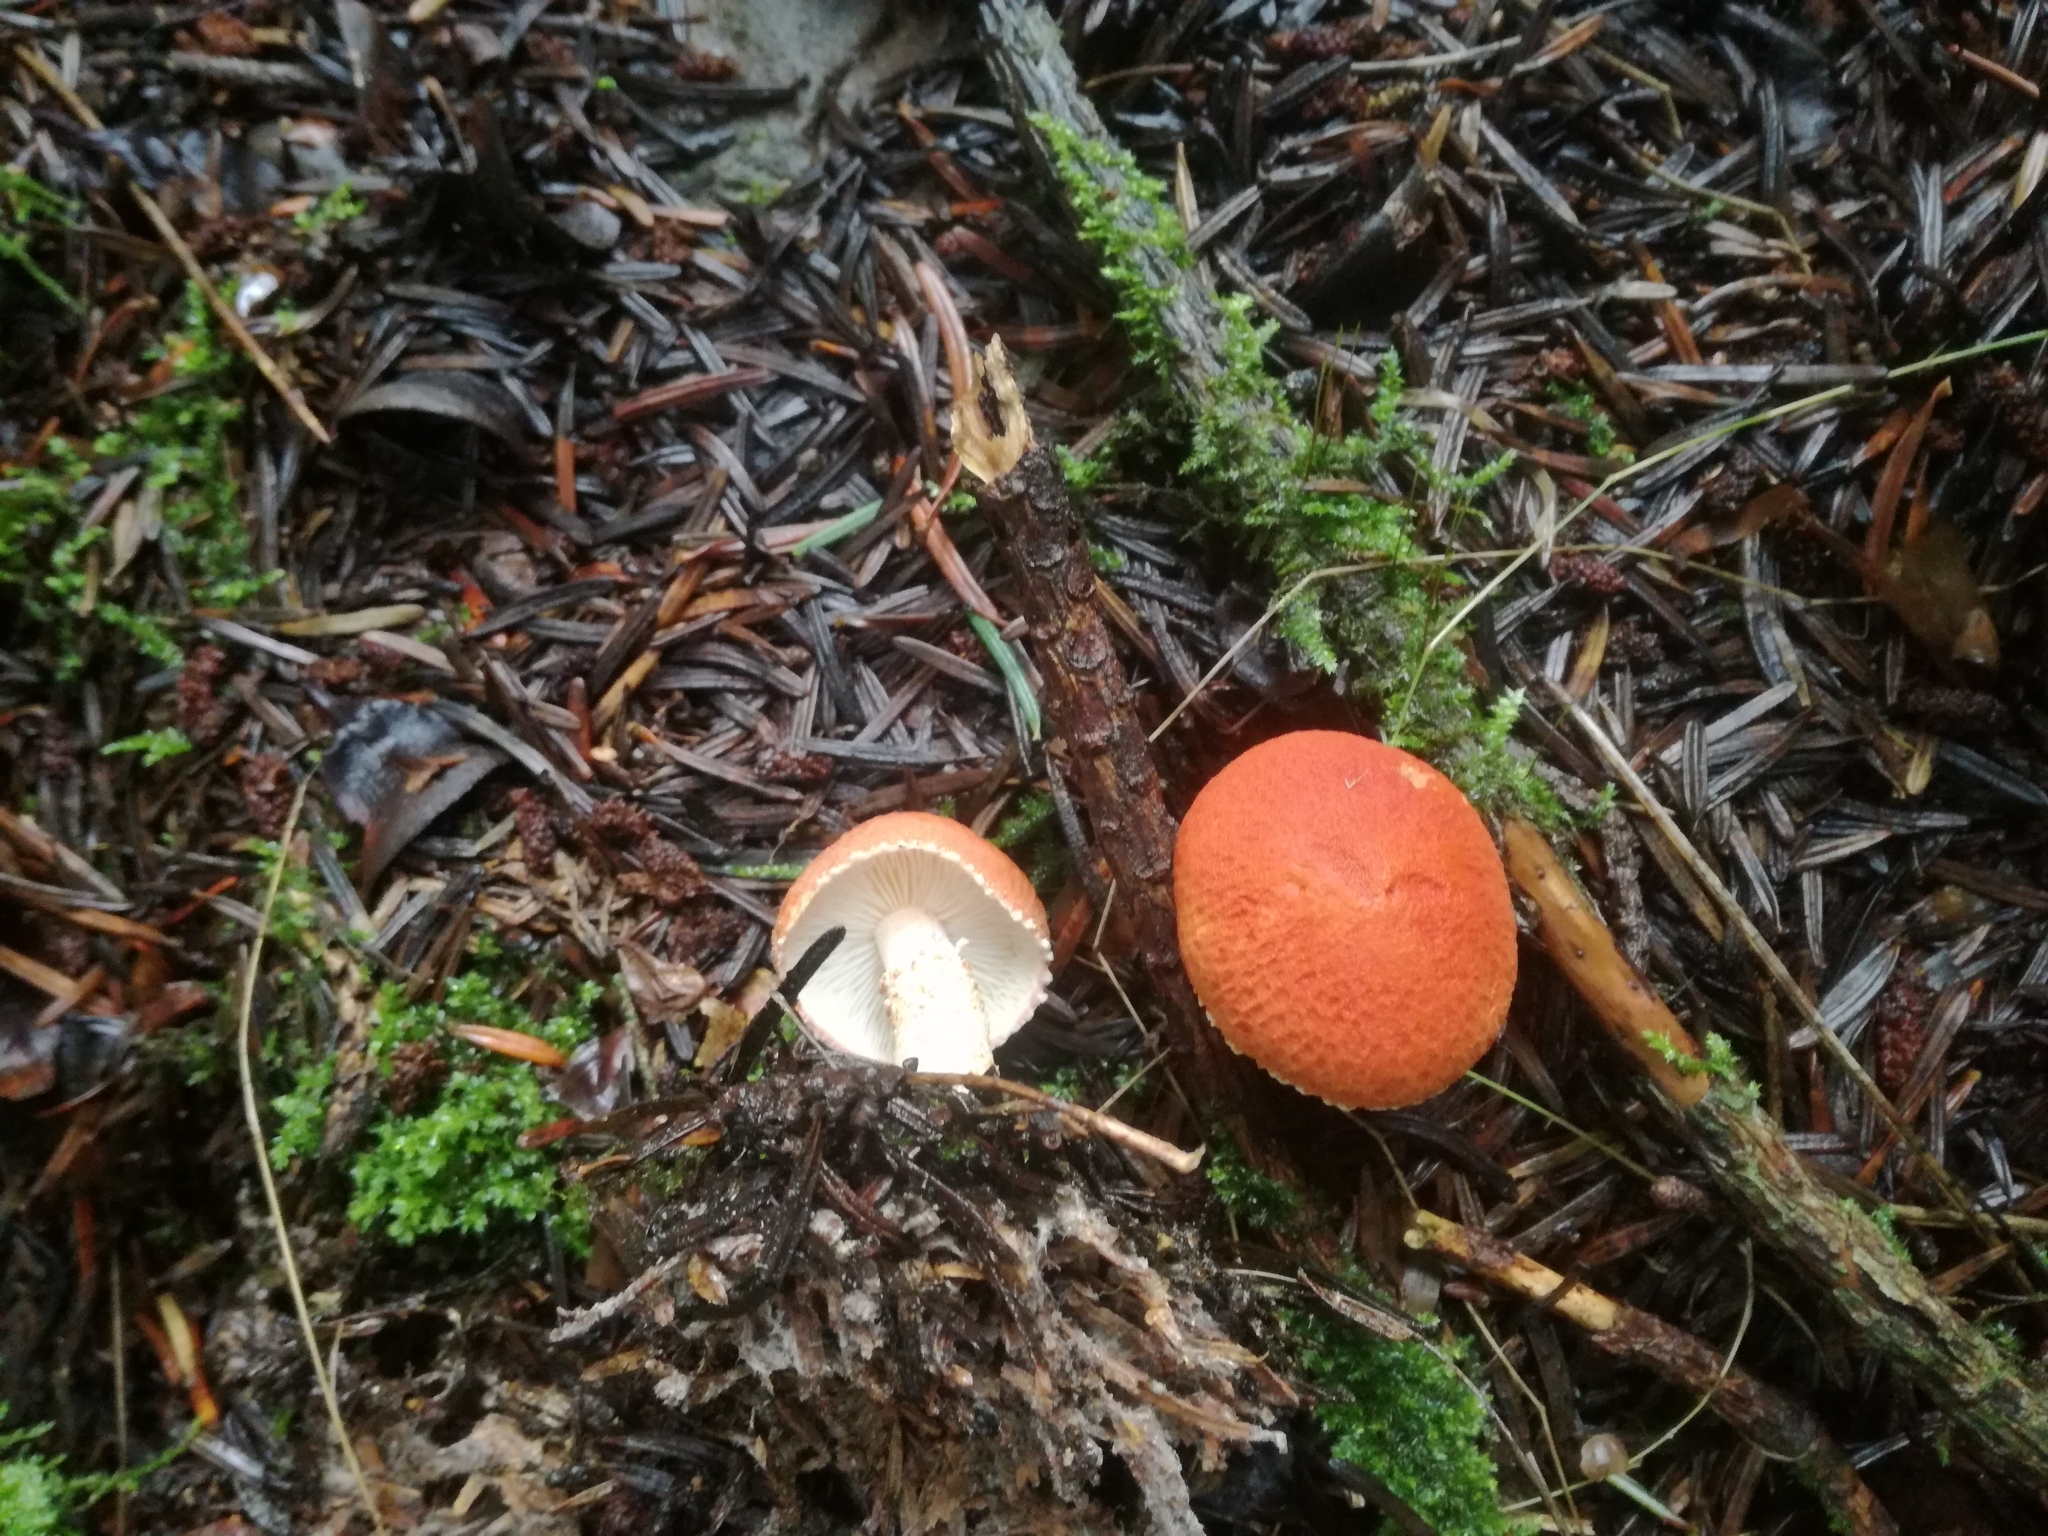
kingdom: Fungi
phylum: Basidiomycota
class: Agaricomycetes
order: Agaricales
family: Agaricaceae
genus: Cystodermella
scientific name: Cystodermella granulosa
